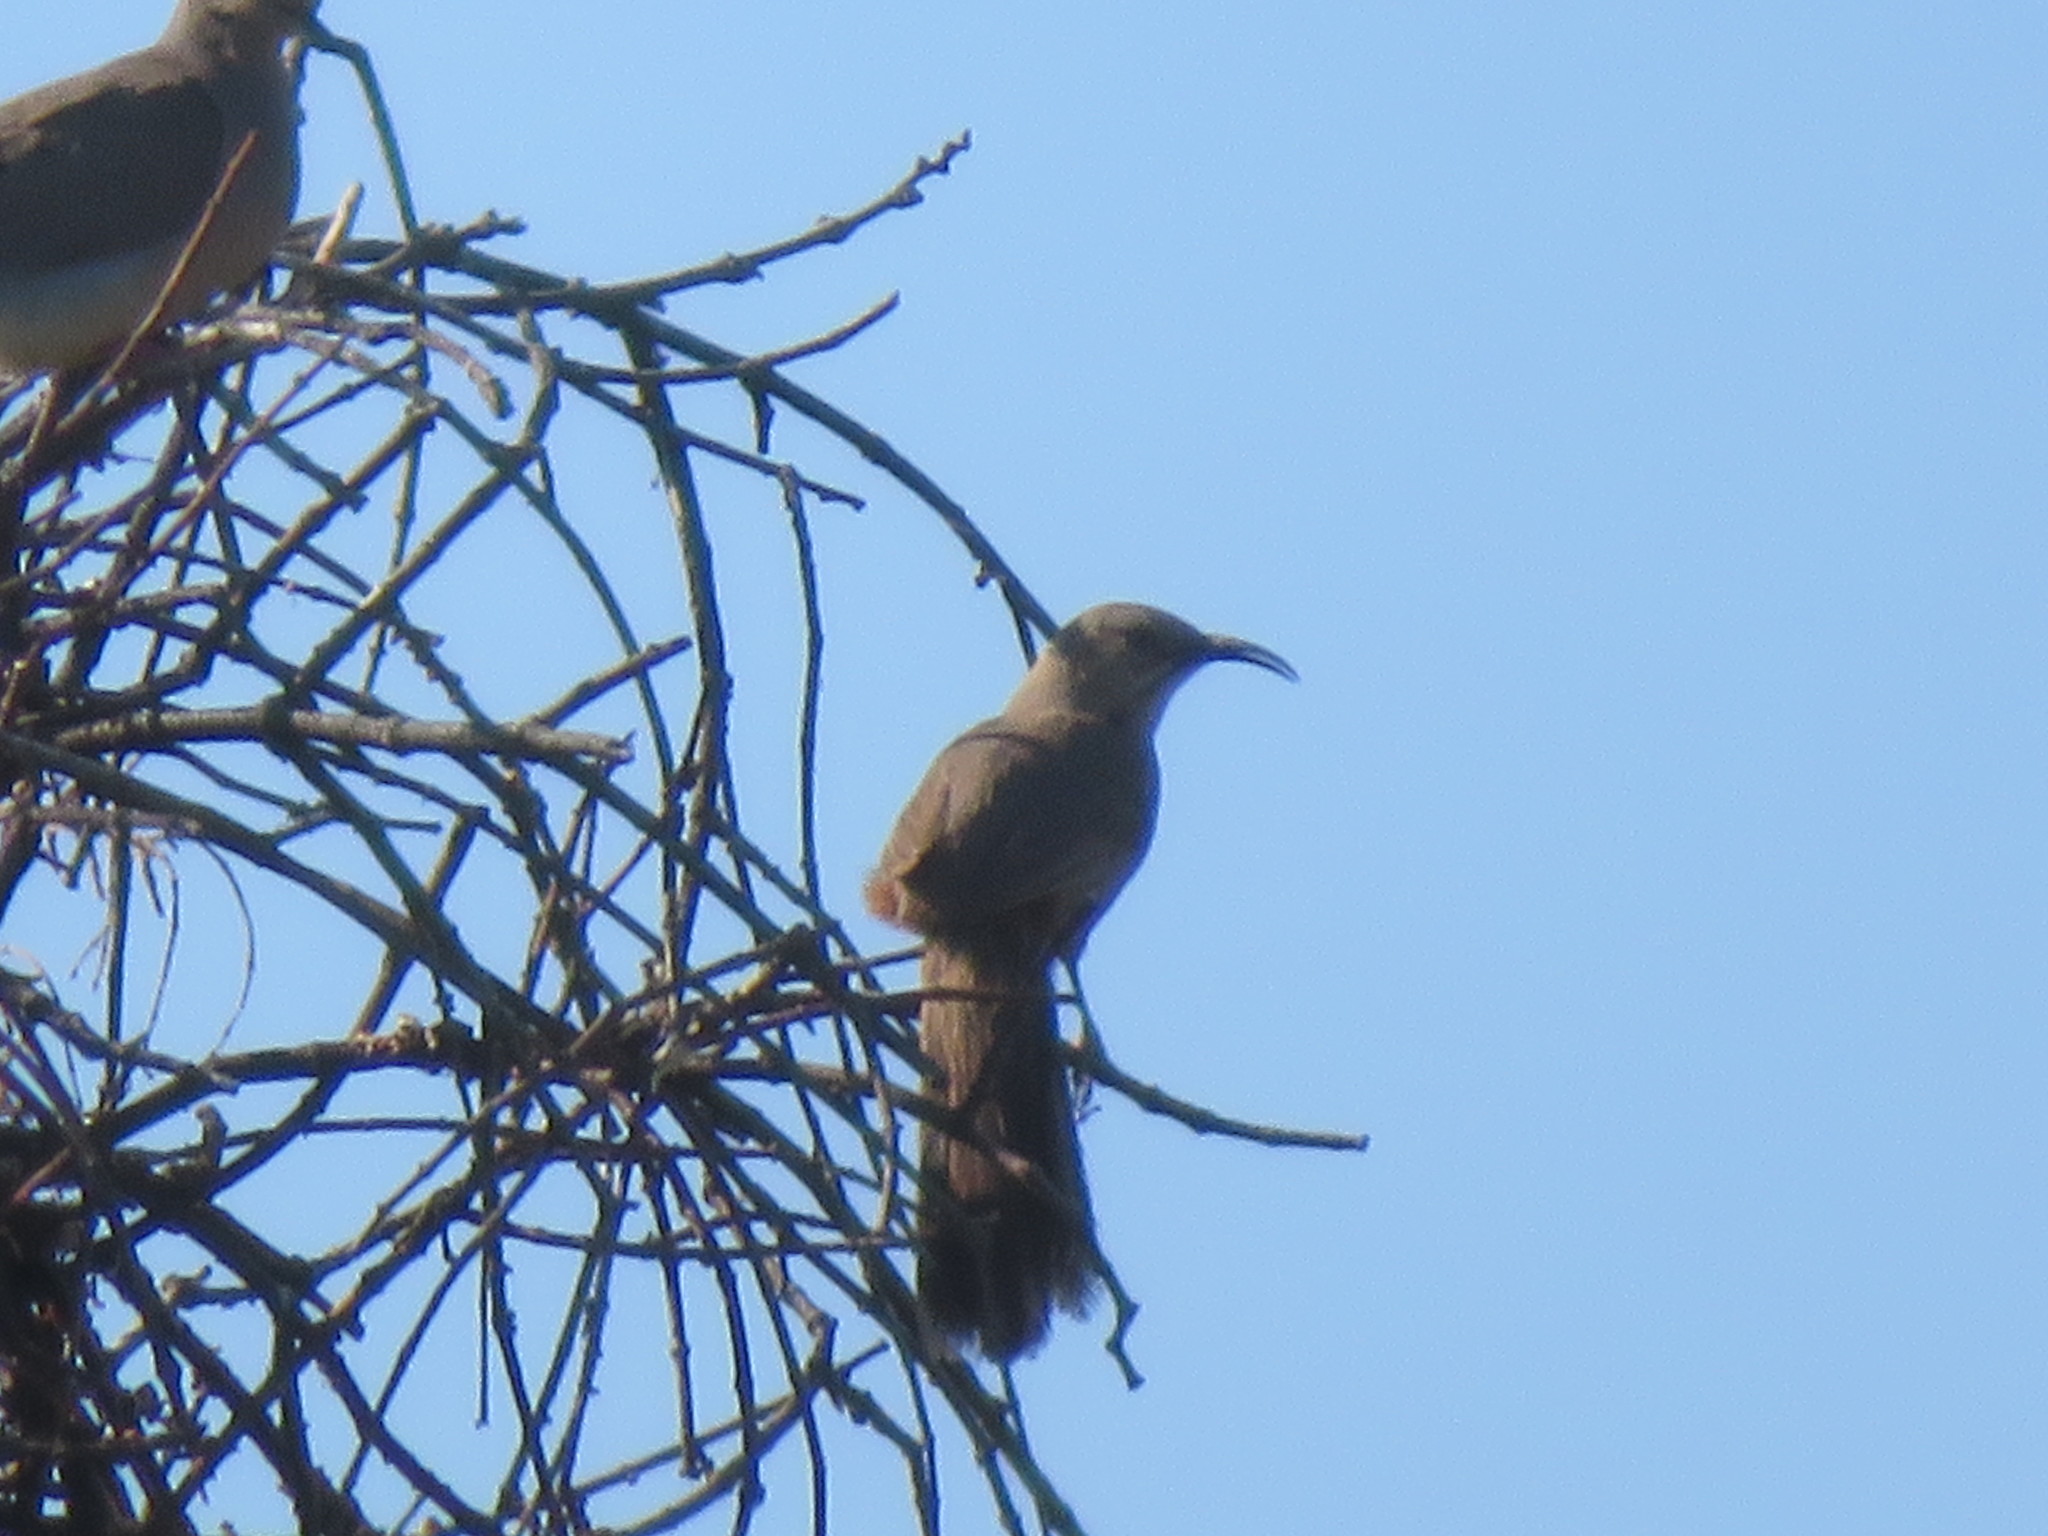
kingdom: Animalia
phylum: Chordata
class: Aves
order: Passeriformes
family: Mimidae
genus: Toxostoma
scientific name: Toxostoma crissale
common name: Crissal thrasher
